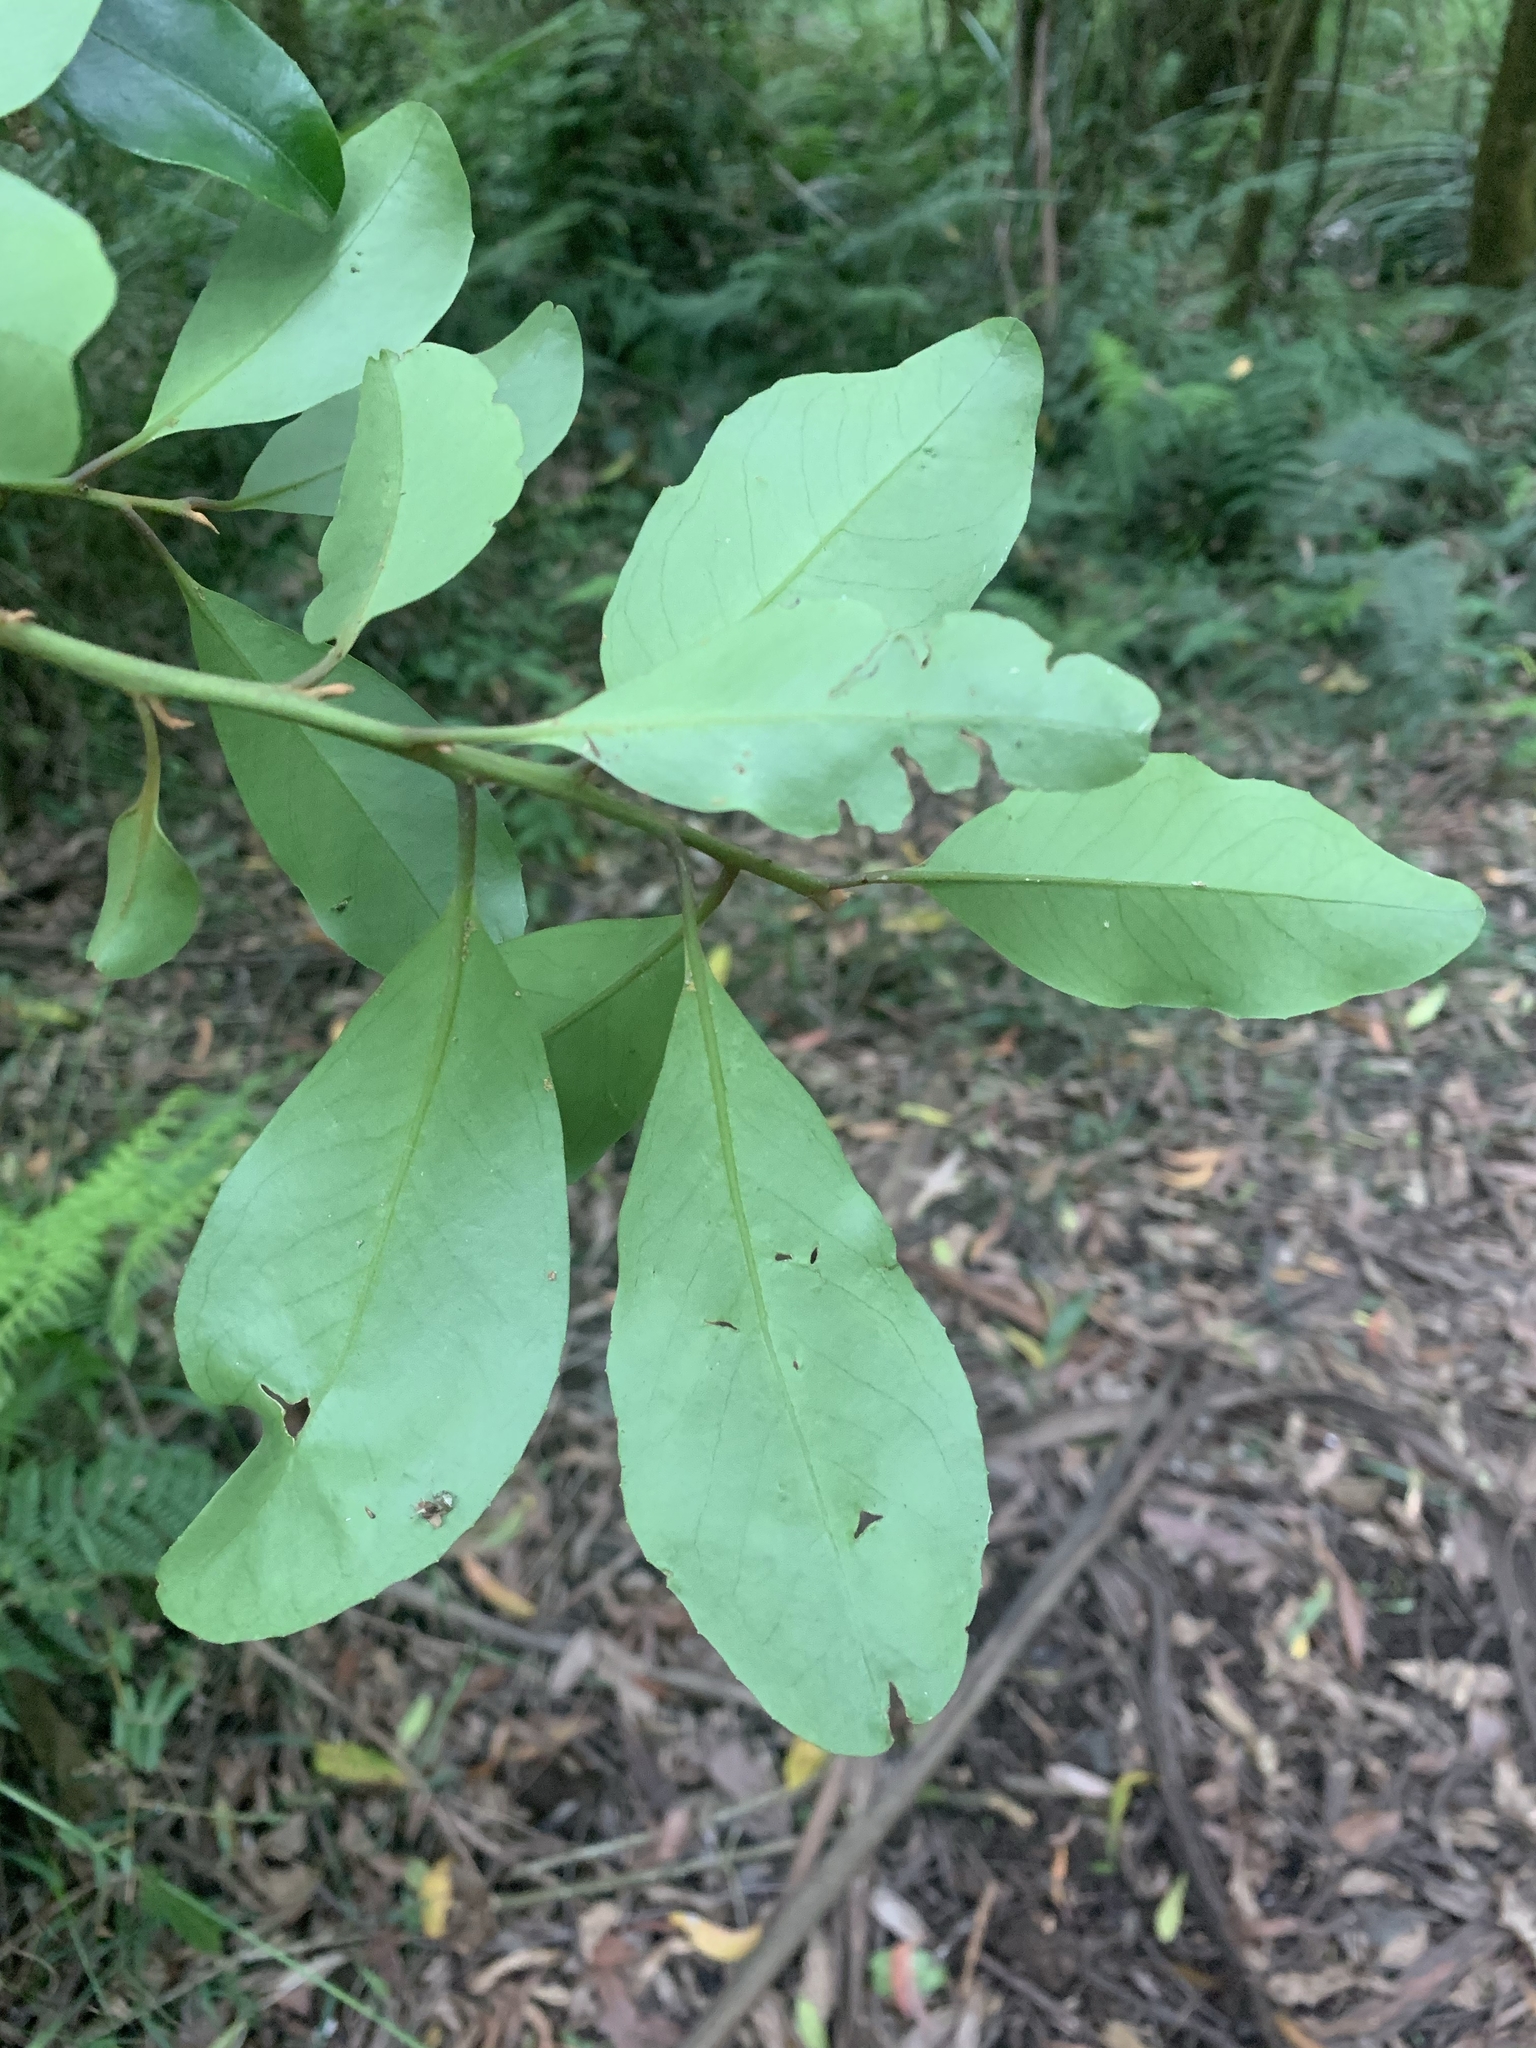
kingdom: Plantae
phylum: Tracheophyta
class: Magnoliopsida
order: Ericales
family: Primulaceae
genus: Myrsine
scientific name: Myrsine howittiana
